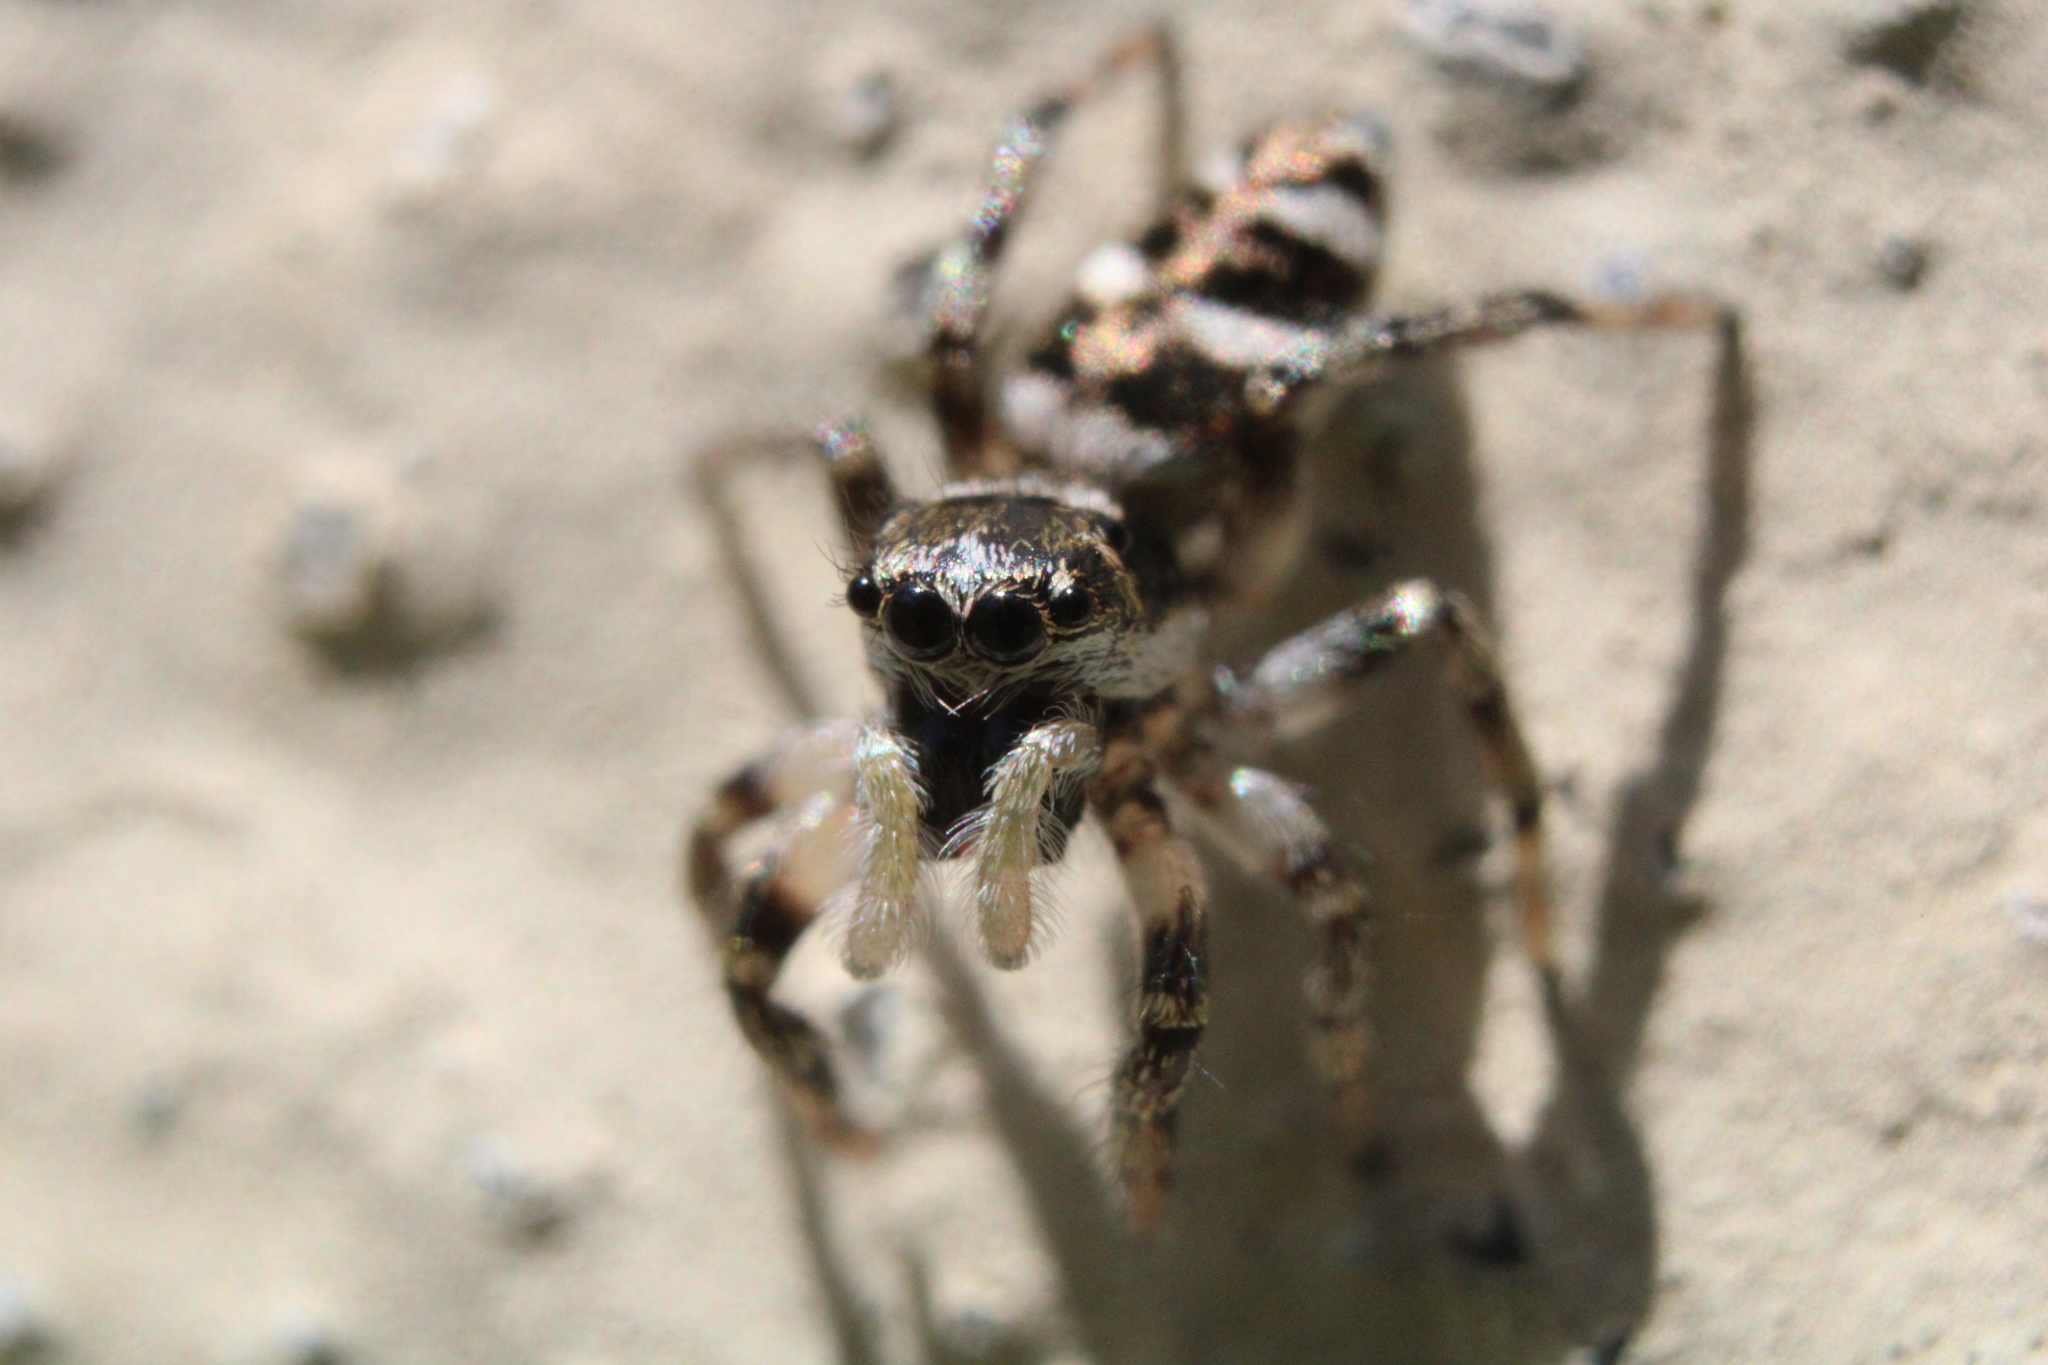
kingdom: Animalia
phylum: Arthropoda
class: Arachnida
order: Araneae
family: Salticidae
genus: Salticus
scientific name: Salticus scenicus
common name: Zebra jumper
